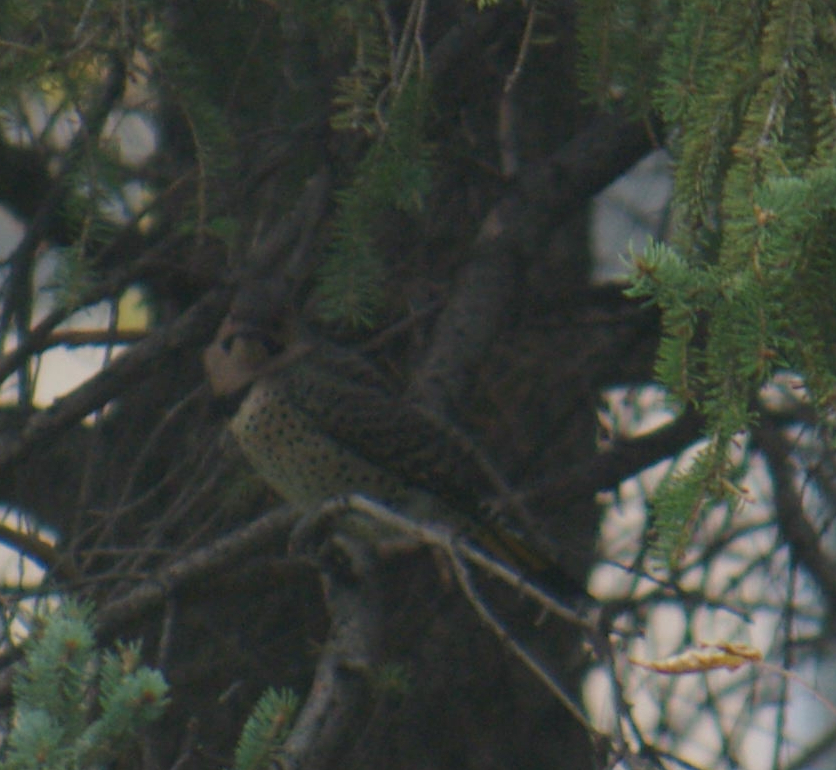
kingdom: Animalia
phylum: Chordata
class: Aves
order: Piciformes
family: Picidae
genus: Colaptes
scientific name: Colaptes auratus
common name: Northern flicker
